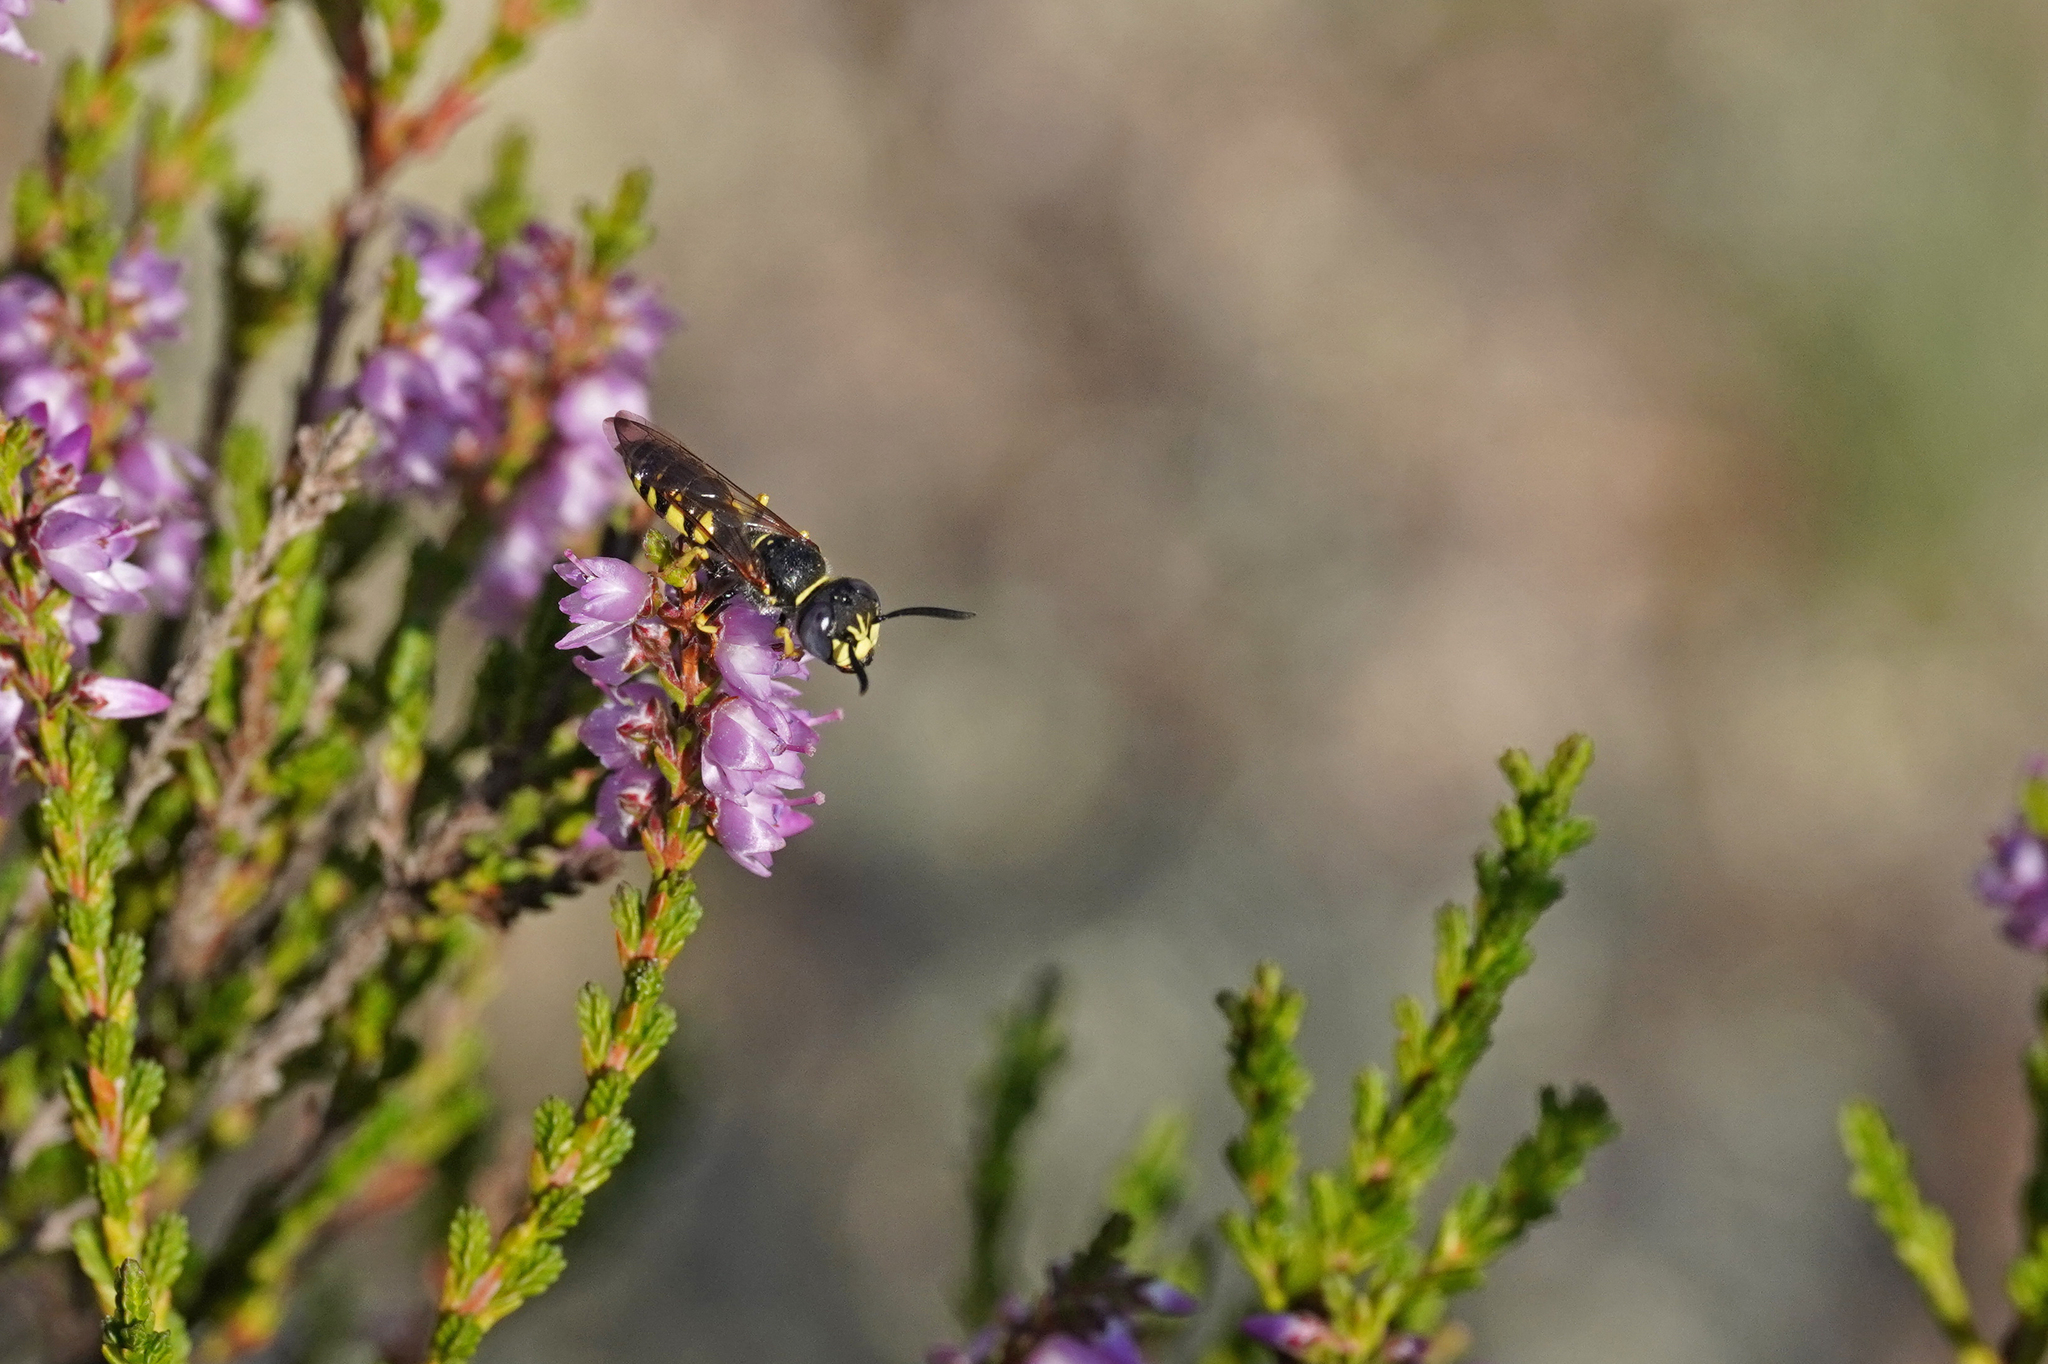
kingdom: Animalia
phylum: Arthropoda
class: Insecta
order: Hymenoptera
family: Crabronidae
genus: Philanthus
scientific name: Philanthus triangulum
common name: Bee wolf
